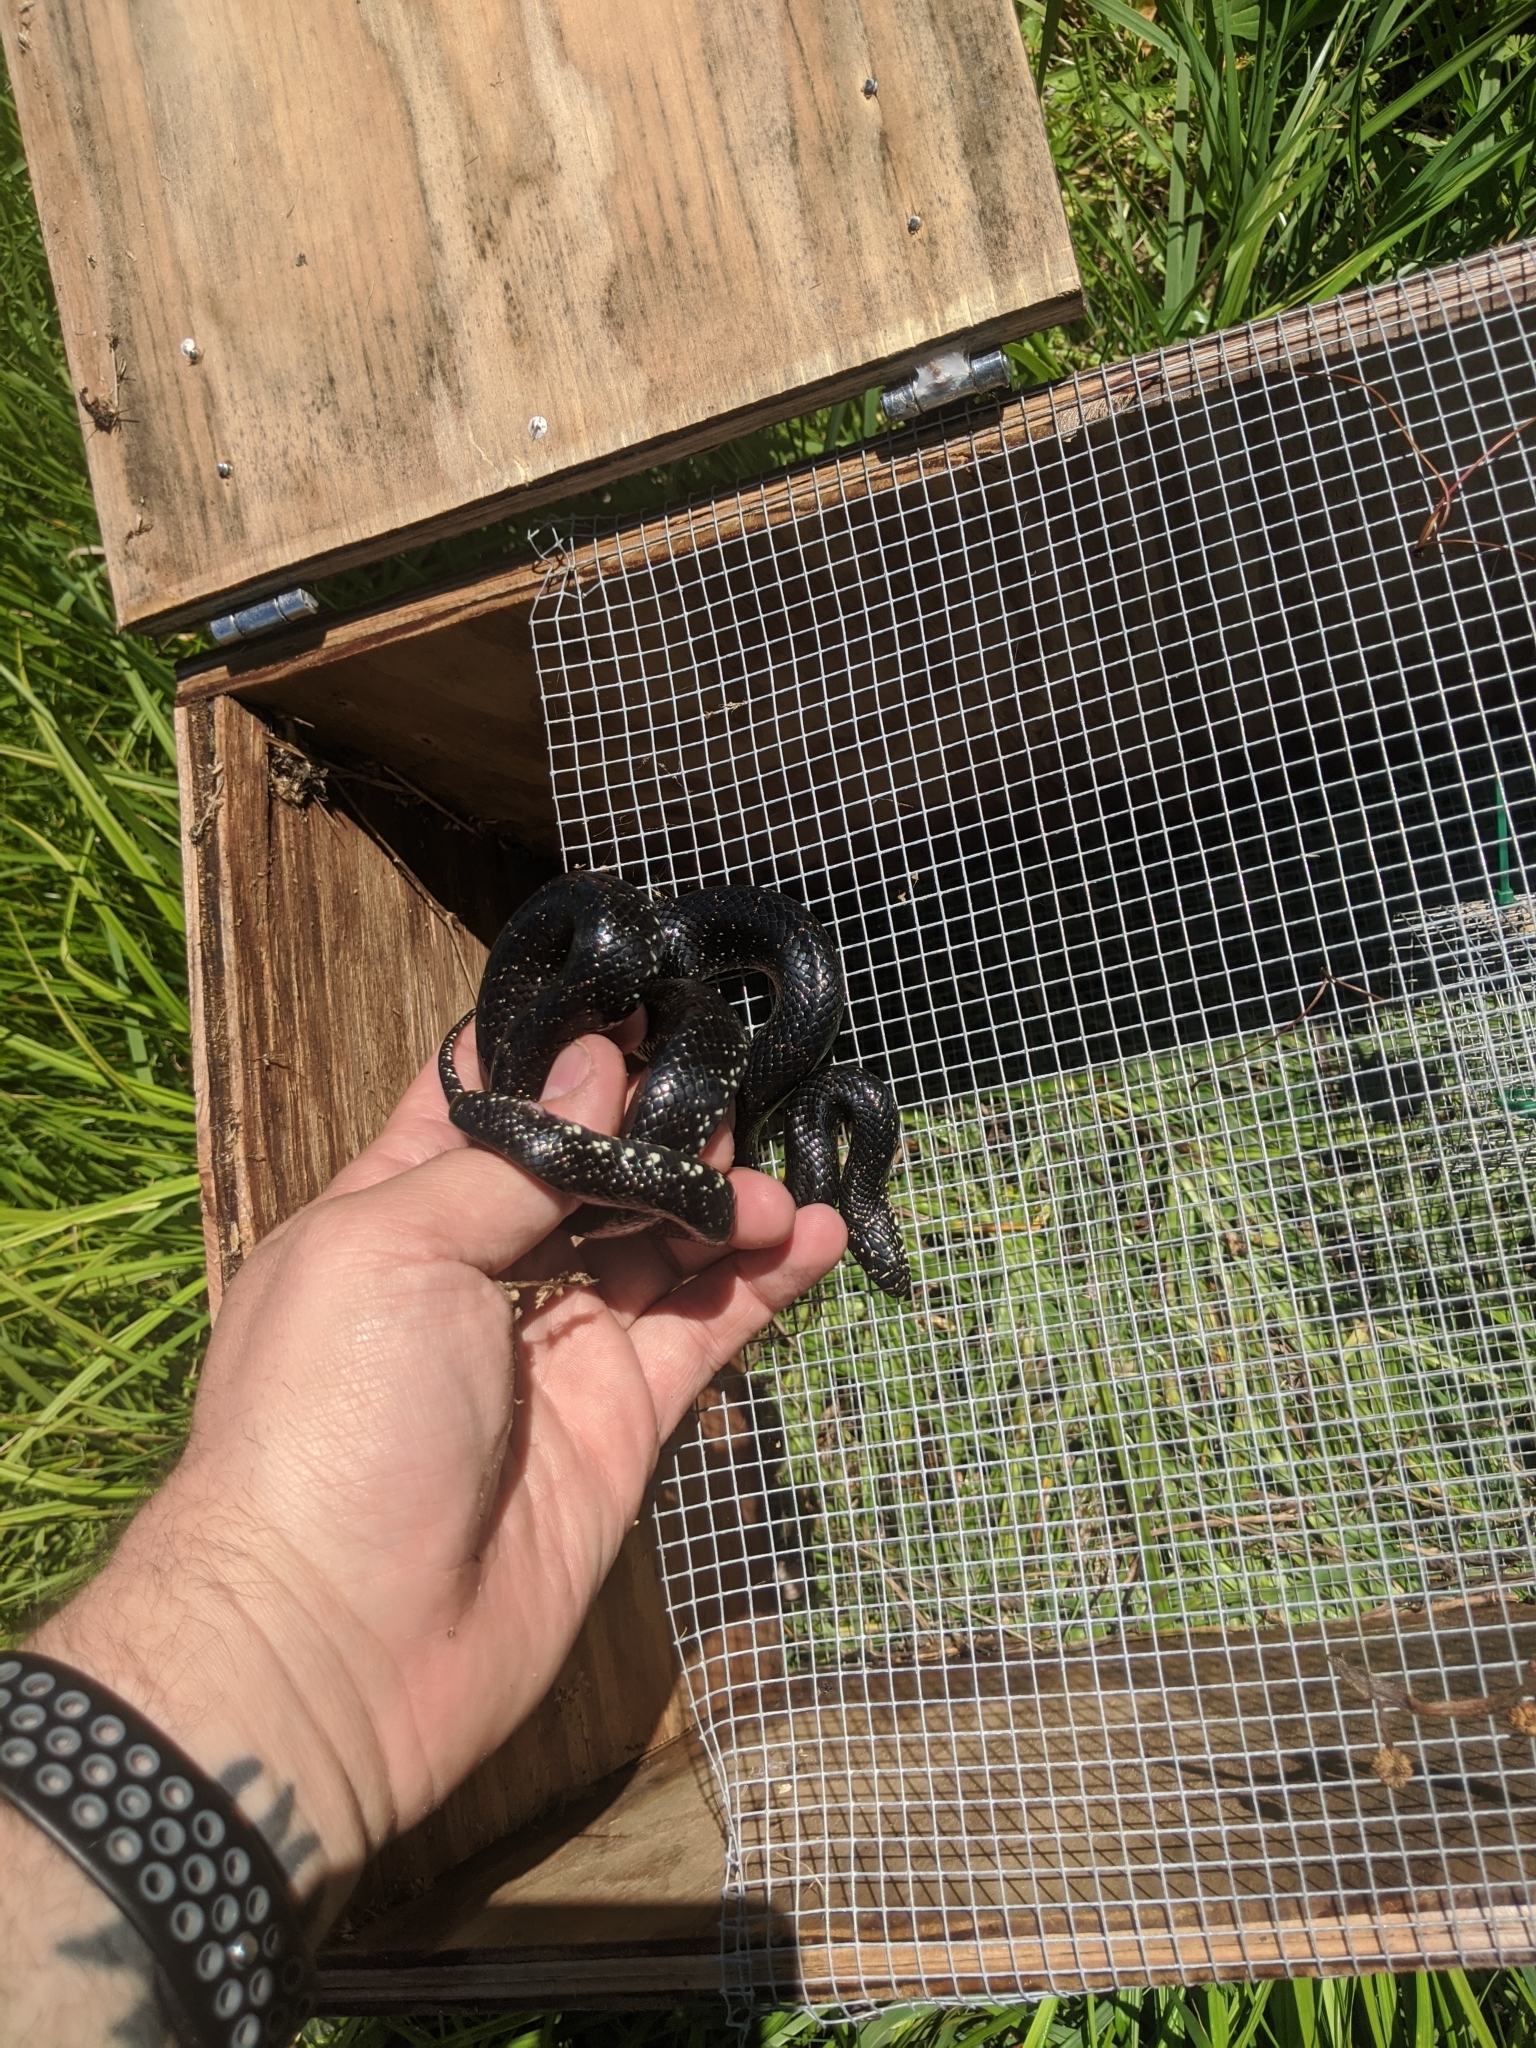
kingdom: Animalia
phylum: Chordata
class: Squamata
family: Colubridae
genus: Lampropeltis
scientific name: Lampropeltis nigra
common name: Black kingsnake
